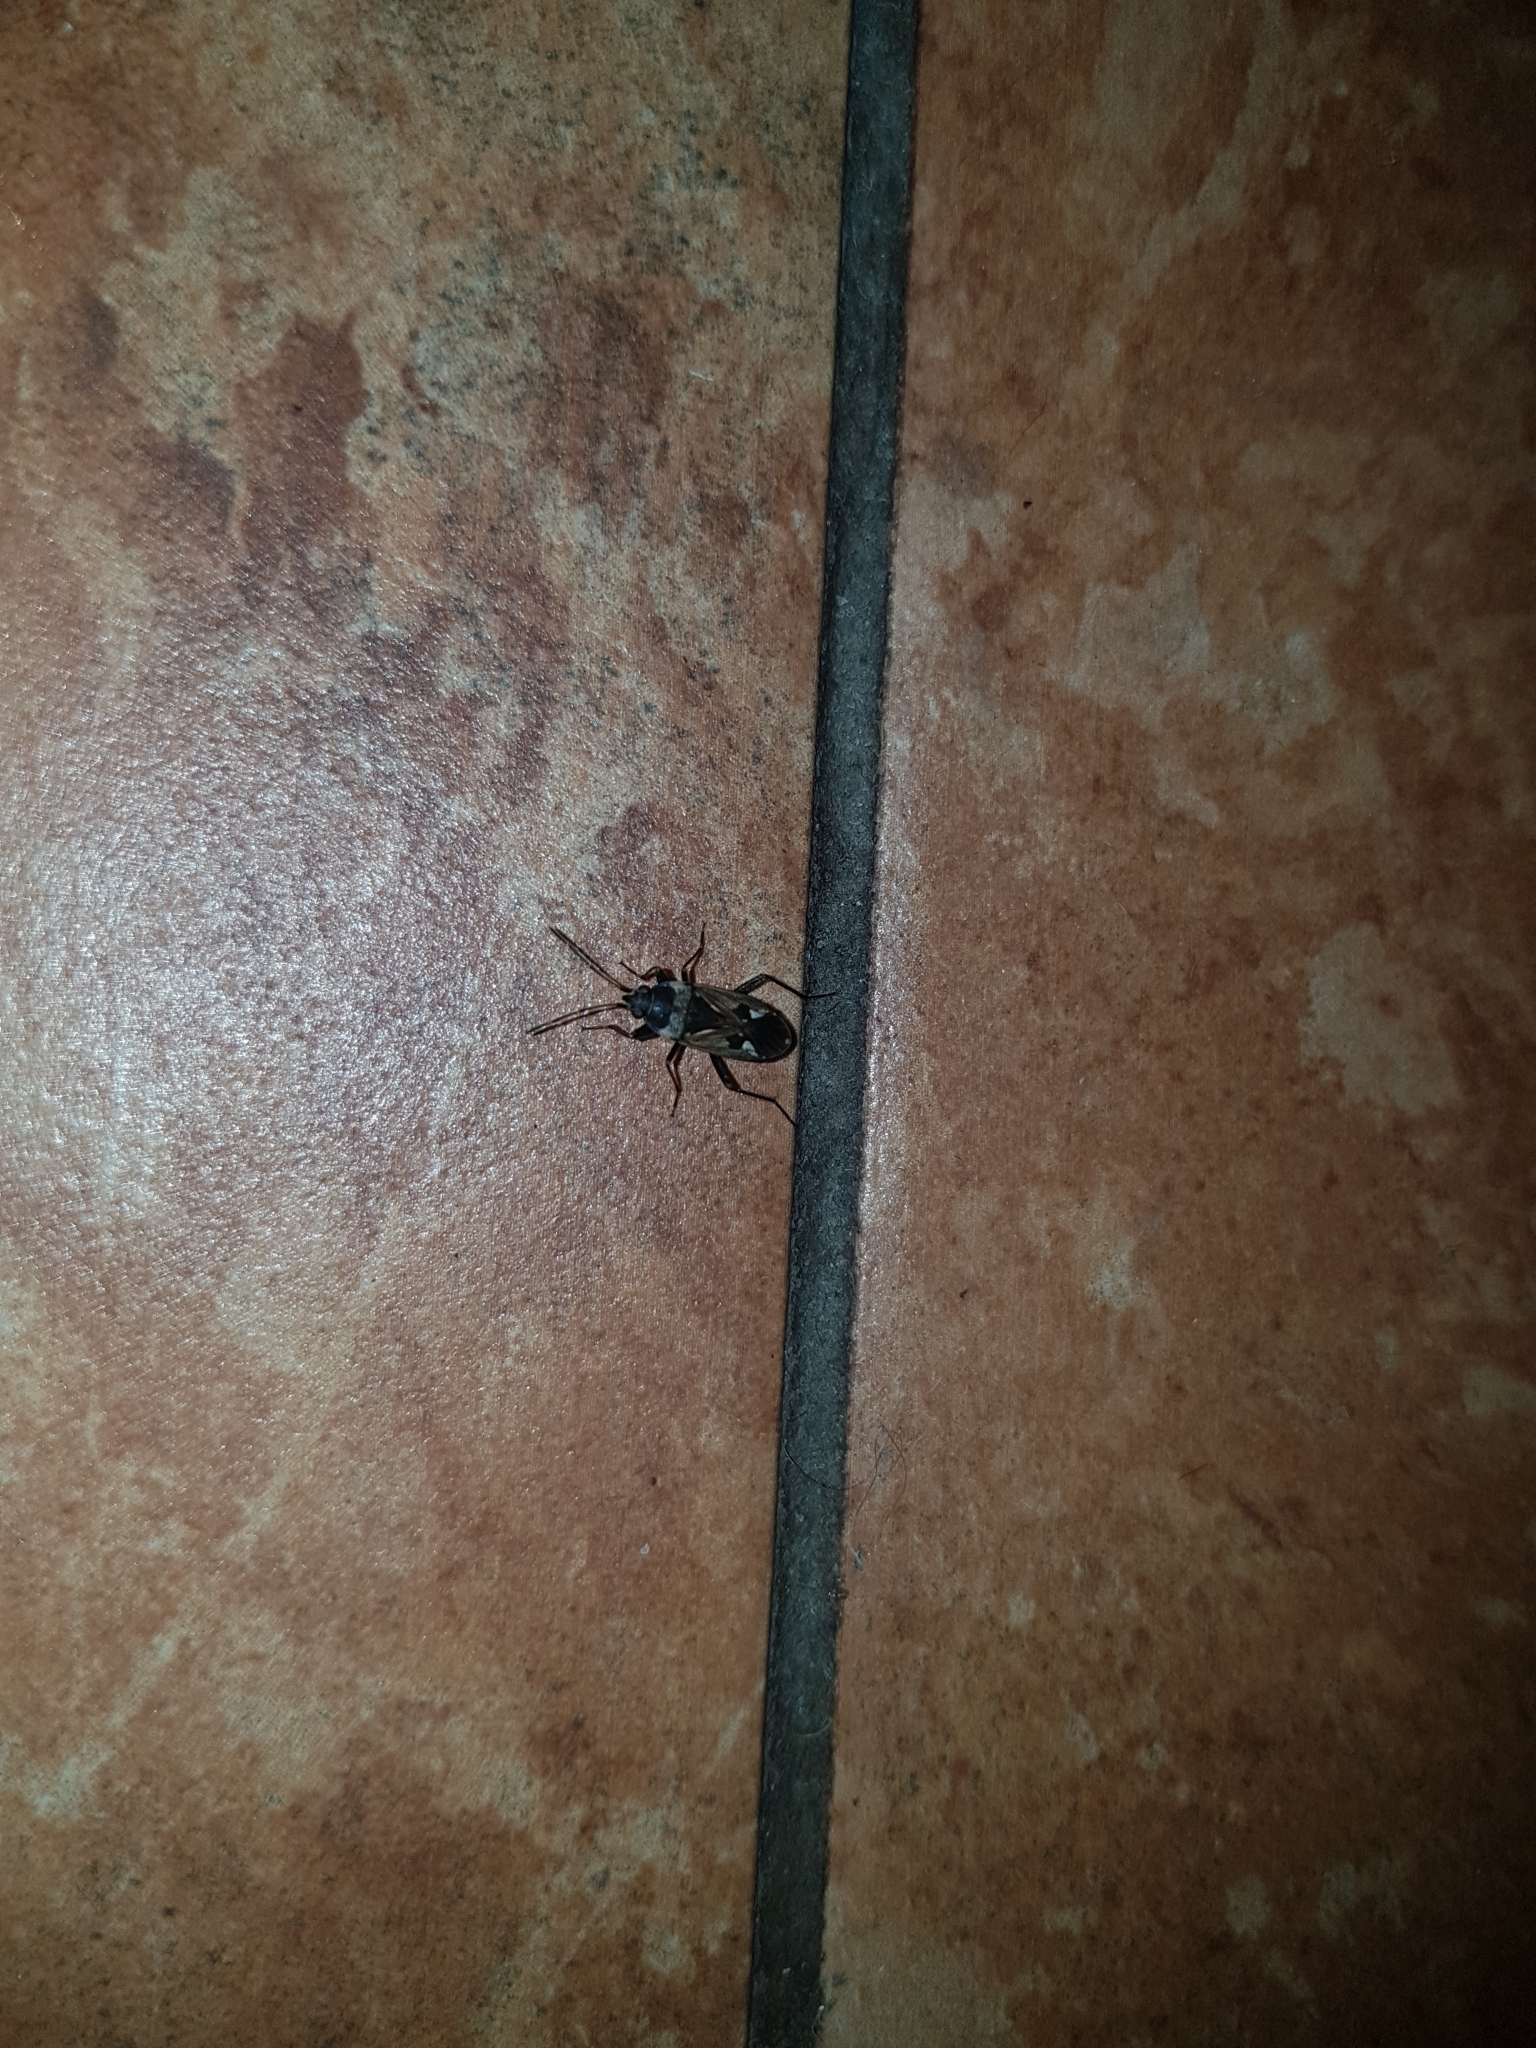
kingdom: Animalia
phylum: Arthropoda
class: Insecta
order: Hemiptera
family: Rhyparochromidae
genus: Rhyparochromus
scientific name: Rhyparochromus vulgaris
